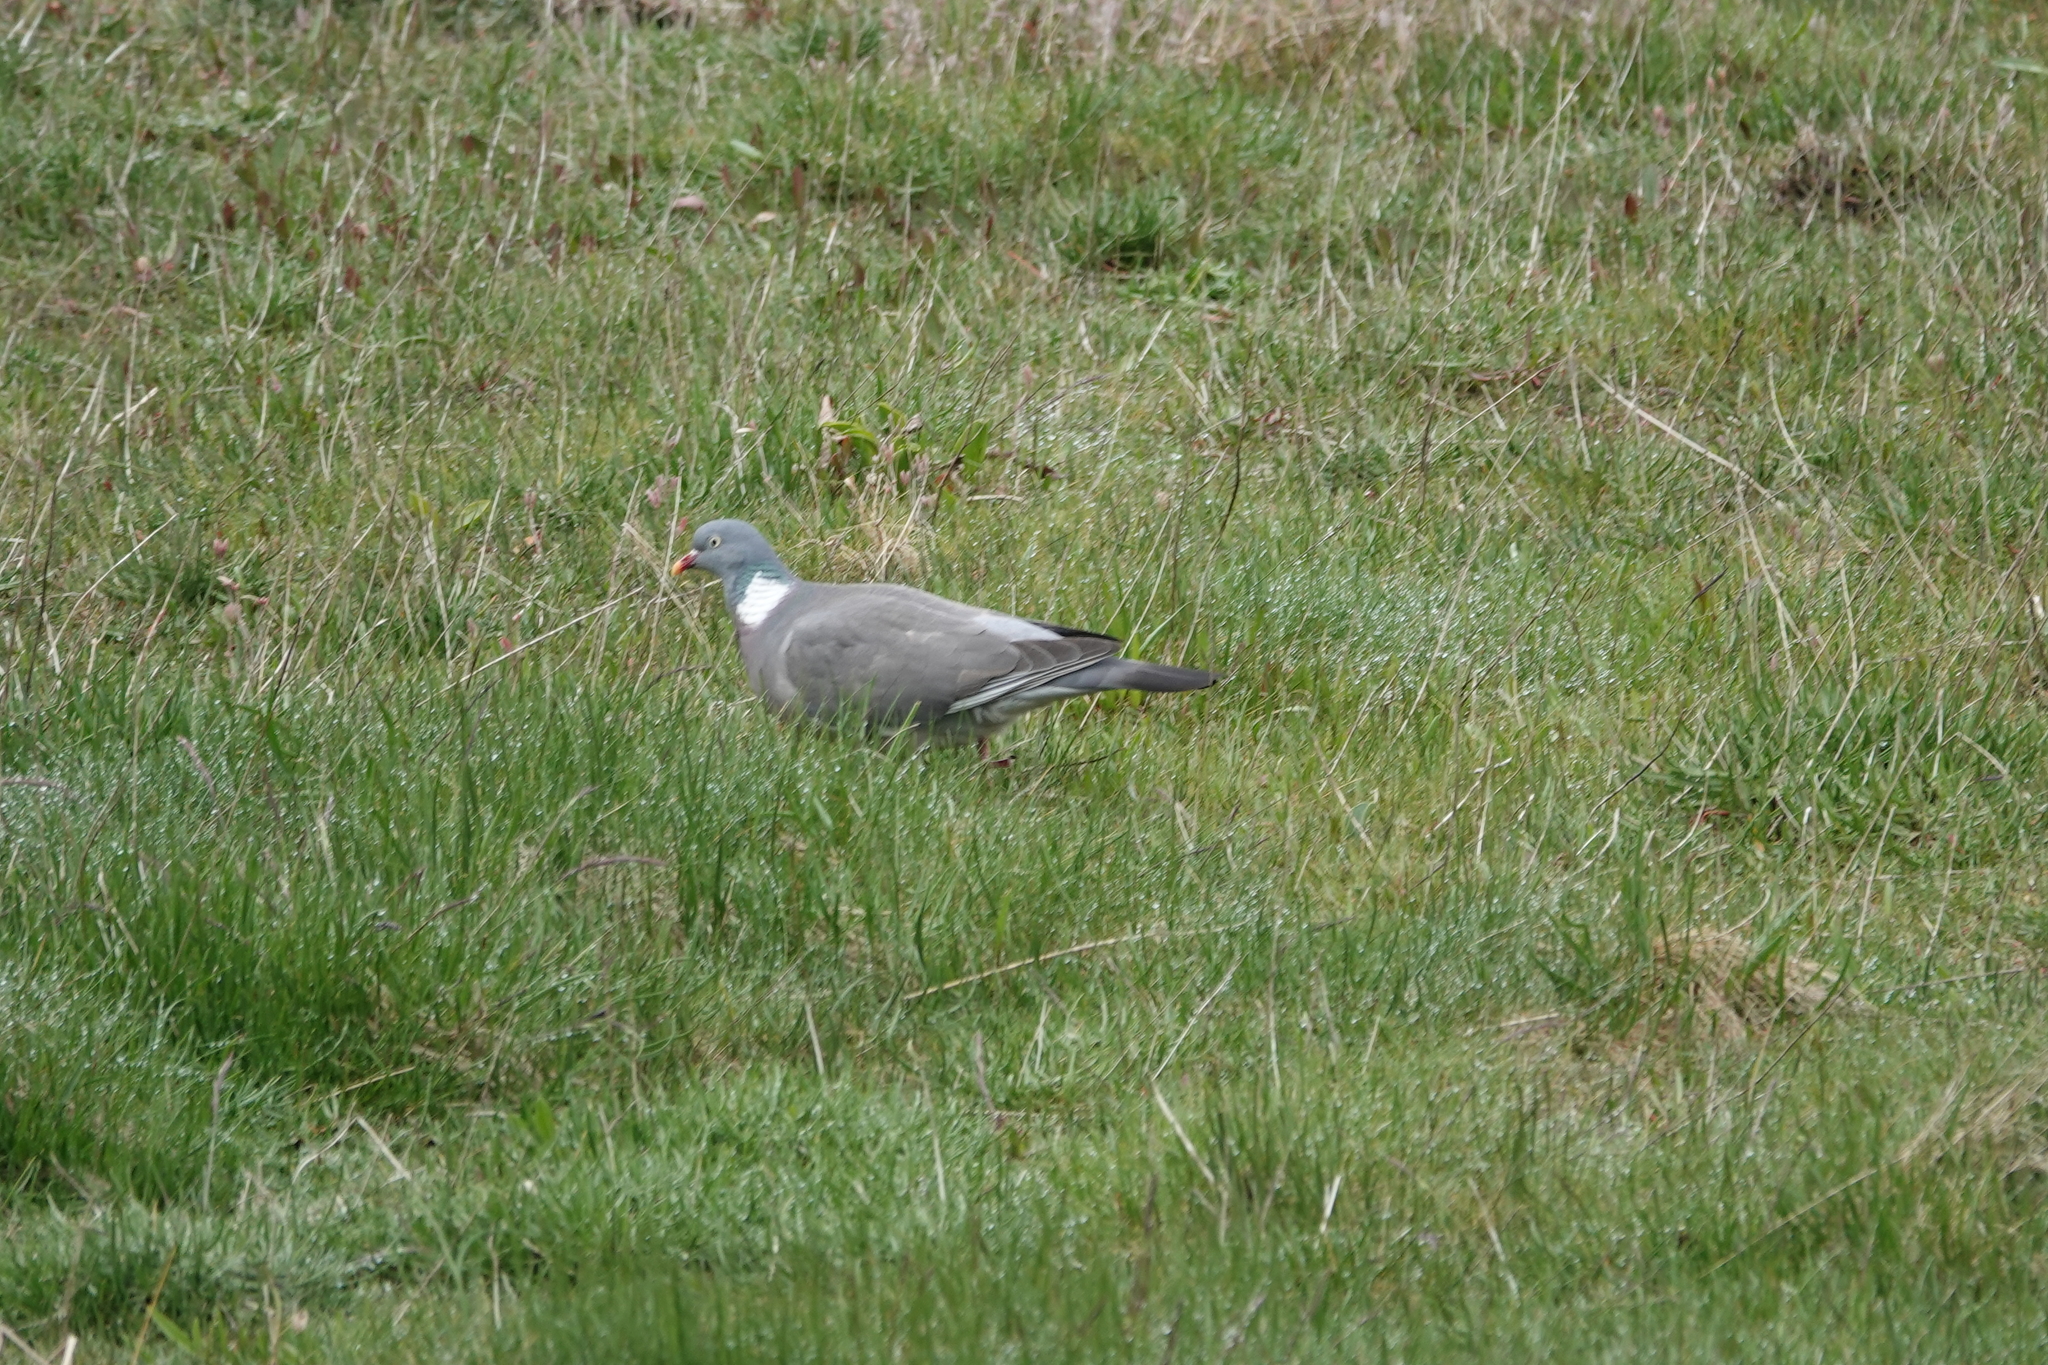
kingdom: Animalia
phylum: Chordata
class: Aves
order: Columbiformes
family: Columbidae
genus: Columba
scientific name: Columba palumbus
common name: Common wood pigeon
